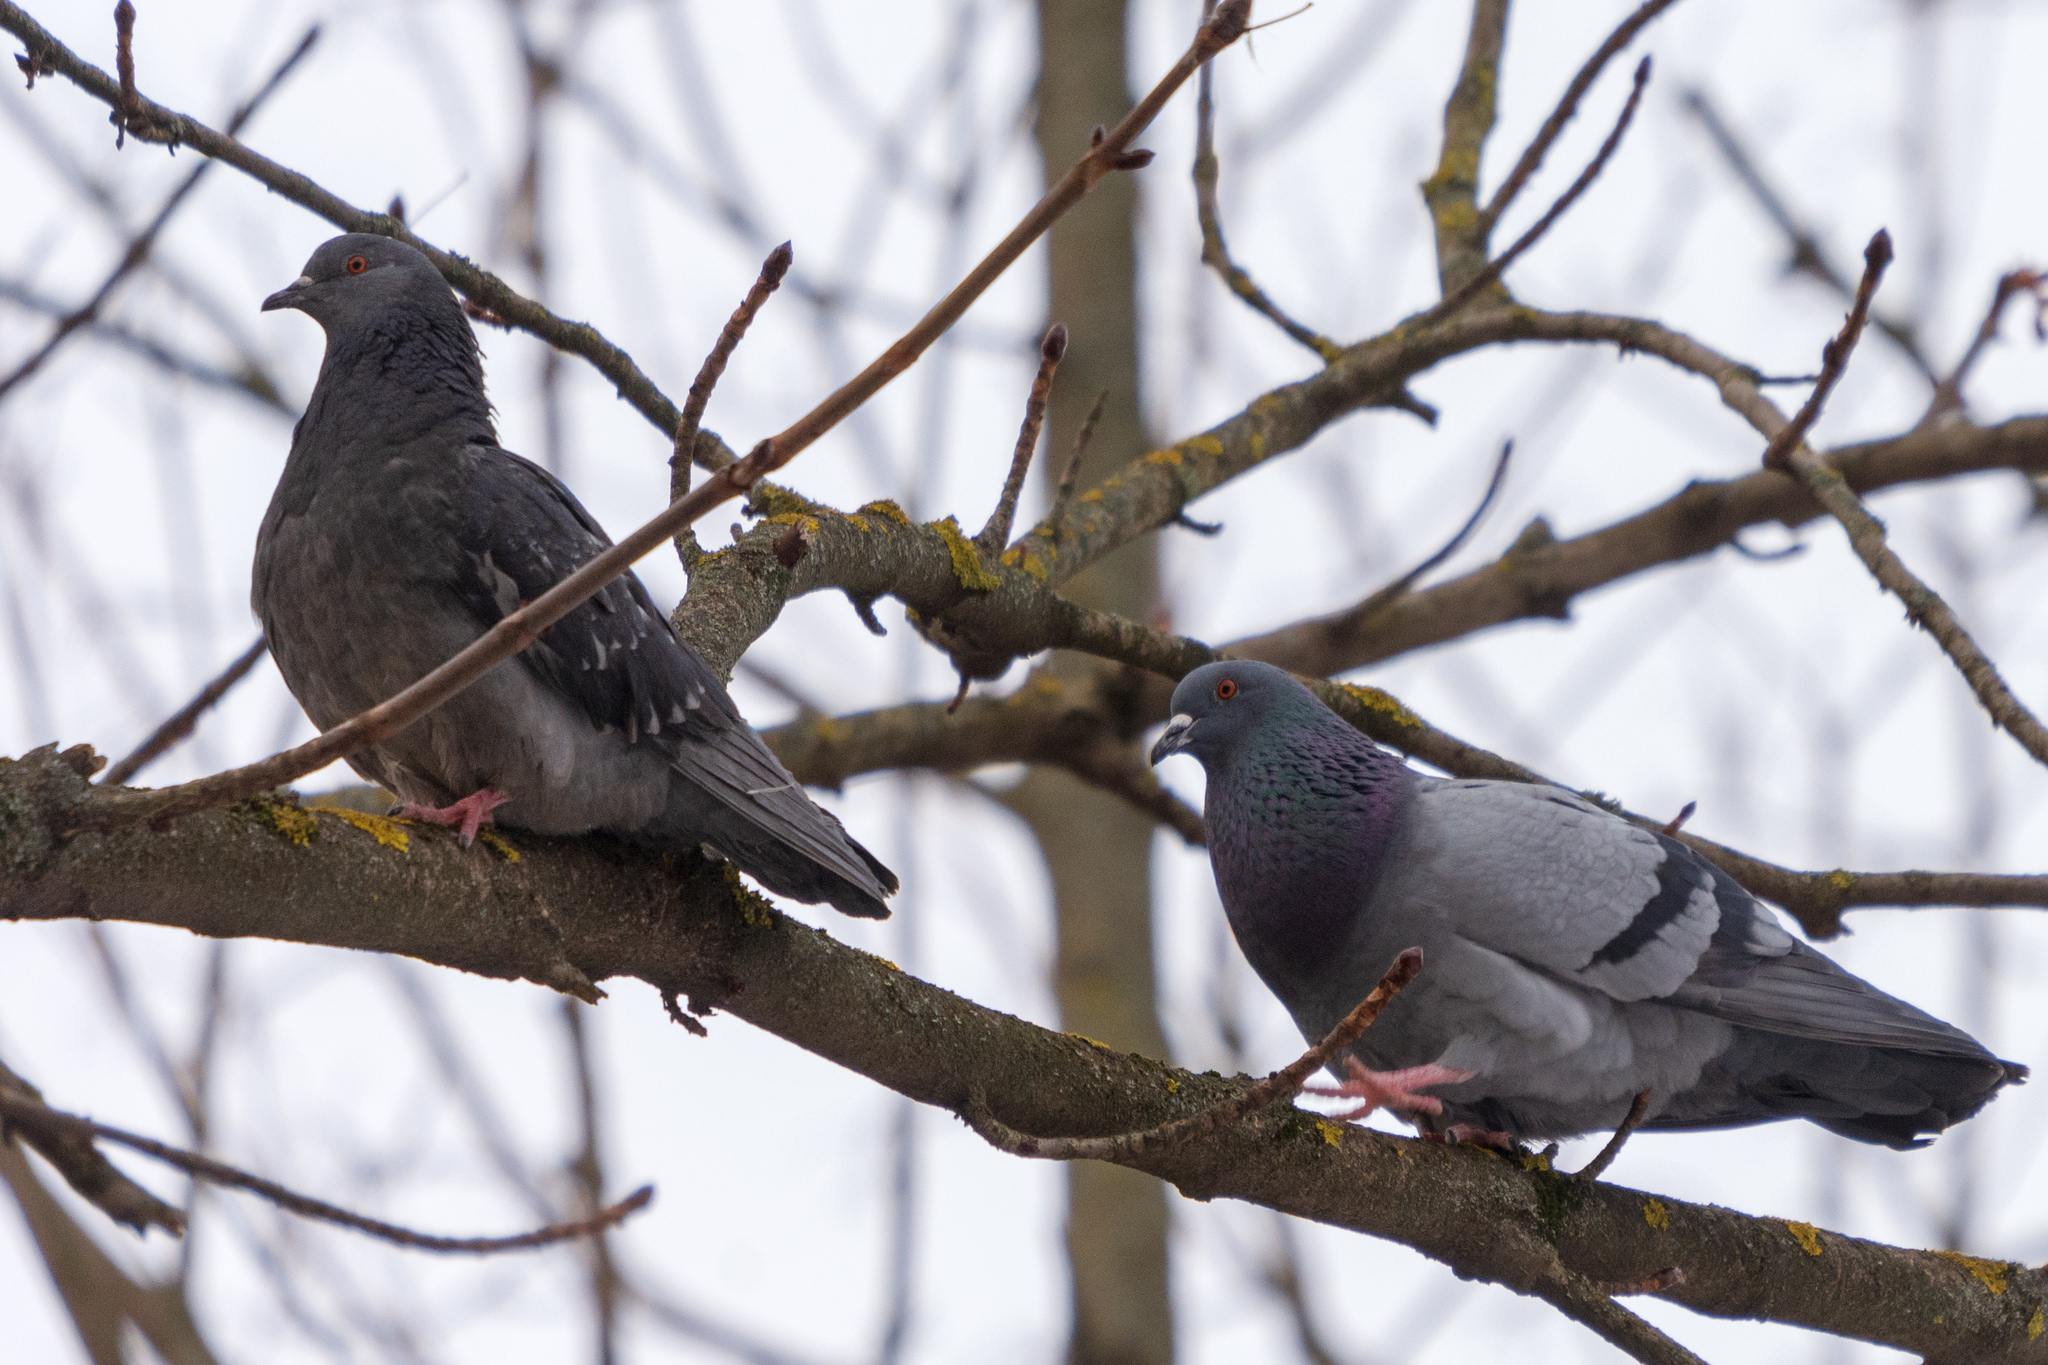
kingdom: Animalia
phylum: Chordata
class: Aves
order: Columbiformes
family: Columbidae
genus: Columba
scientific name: Columba livia
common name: Rock pigeon
